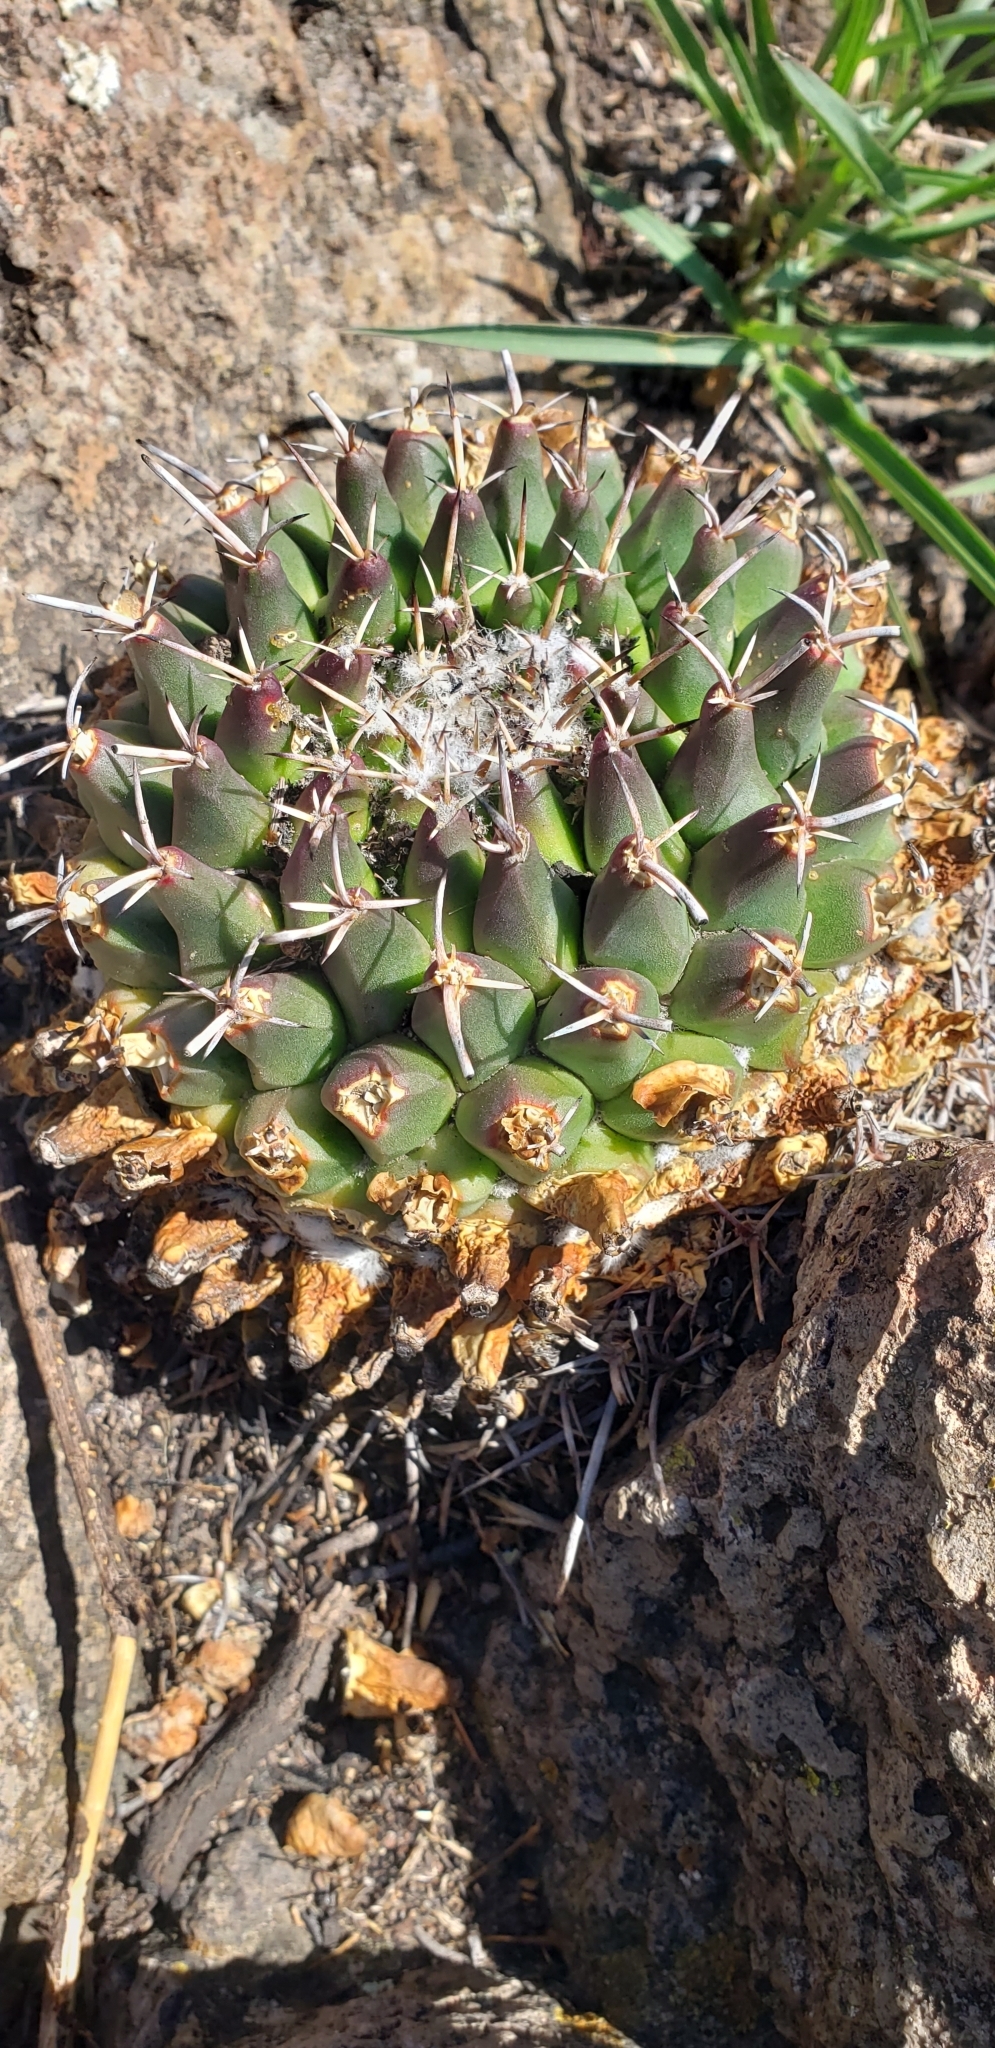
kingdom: Plantae
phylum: Tracheophyta
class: Magnoliopsida
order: Caryophyllales
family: Cactaceae
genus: Mammillaria
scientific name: Mammillaria magnimamma
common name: Mexican pincushion
